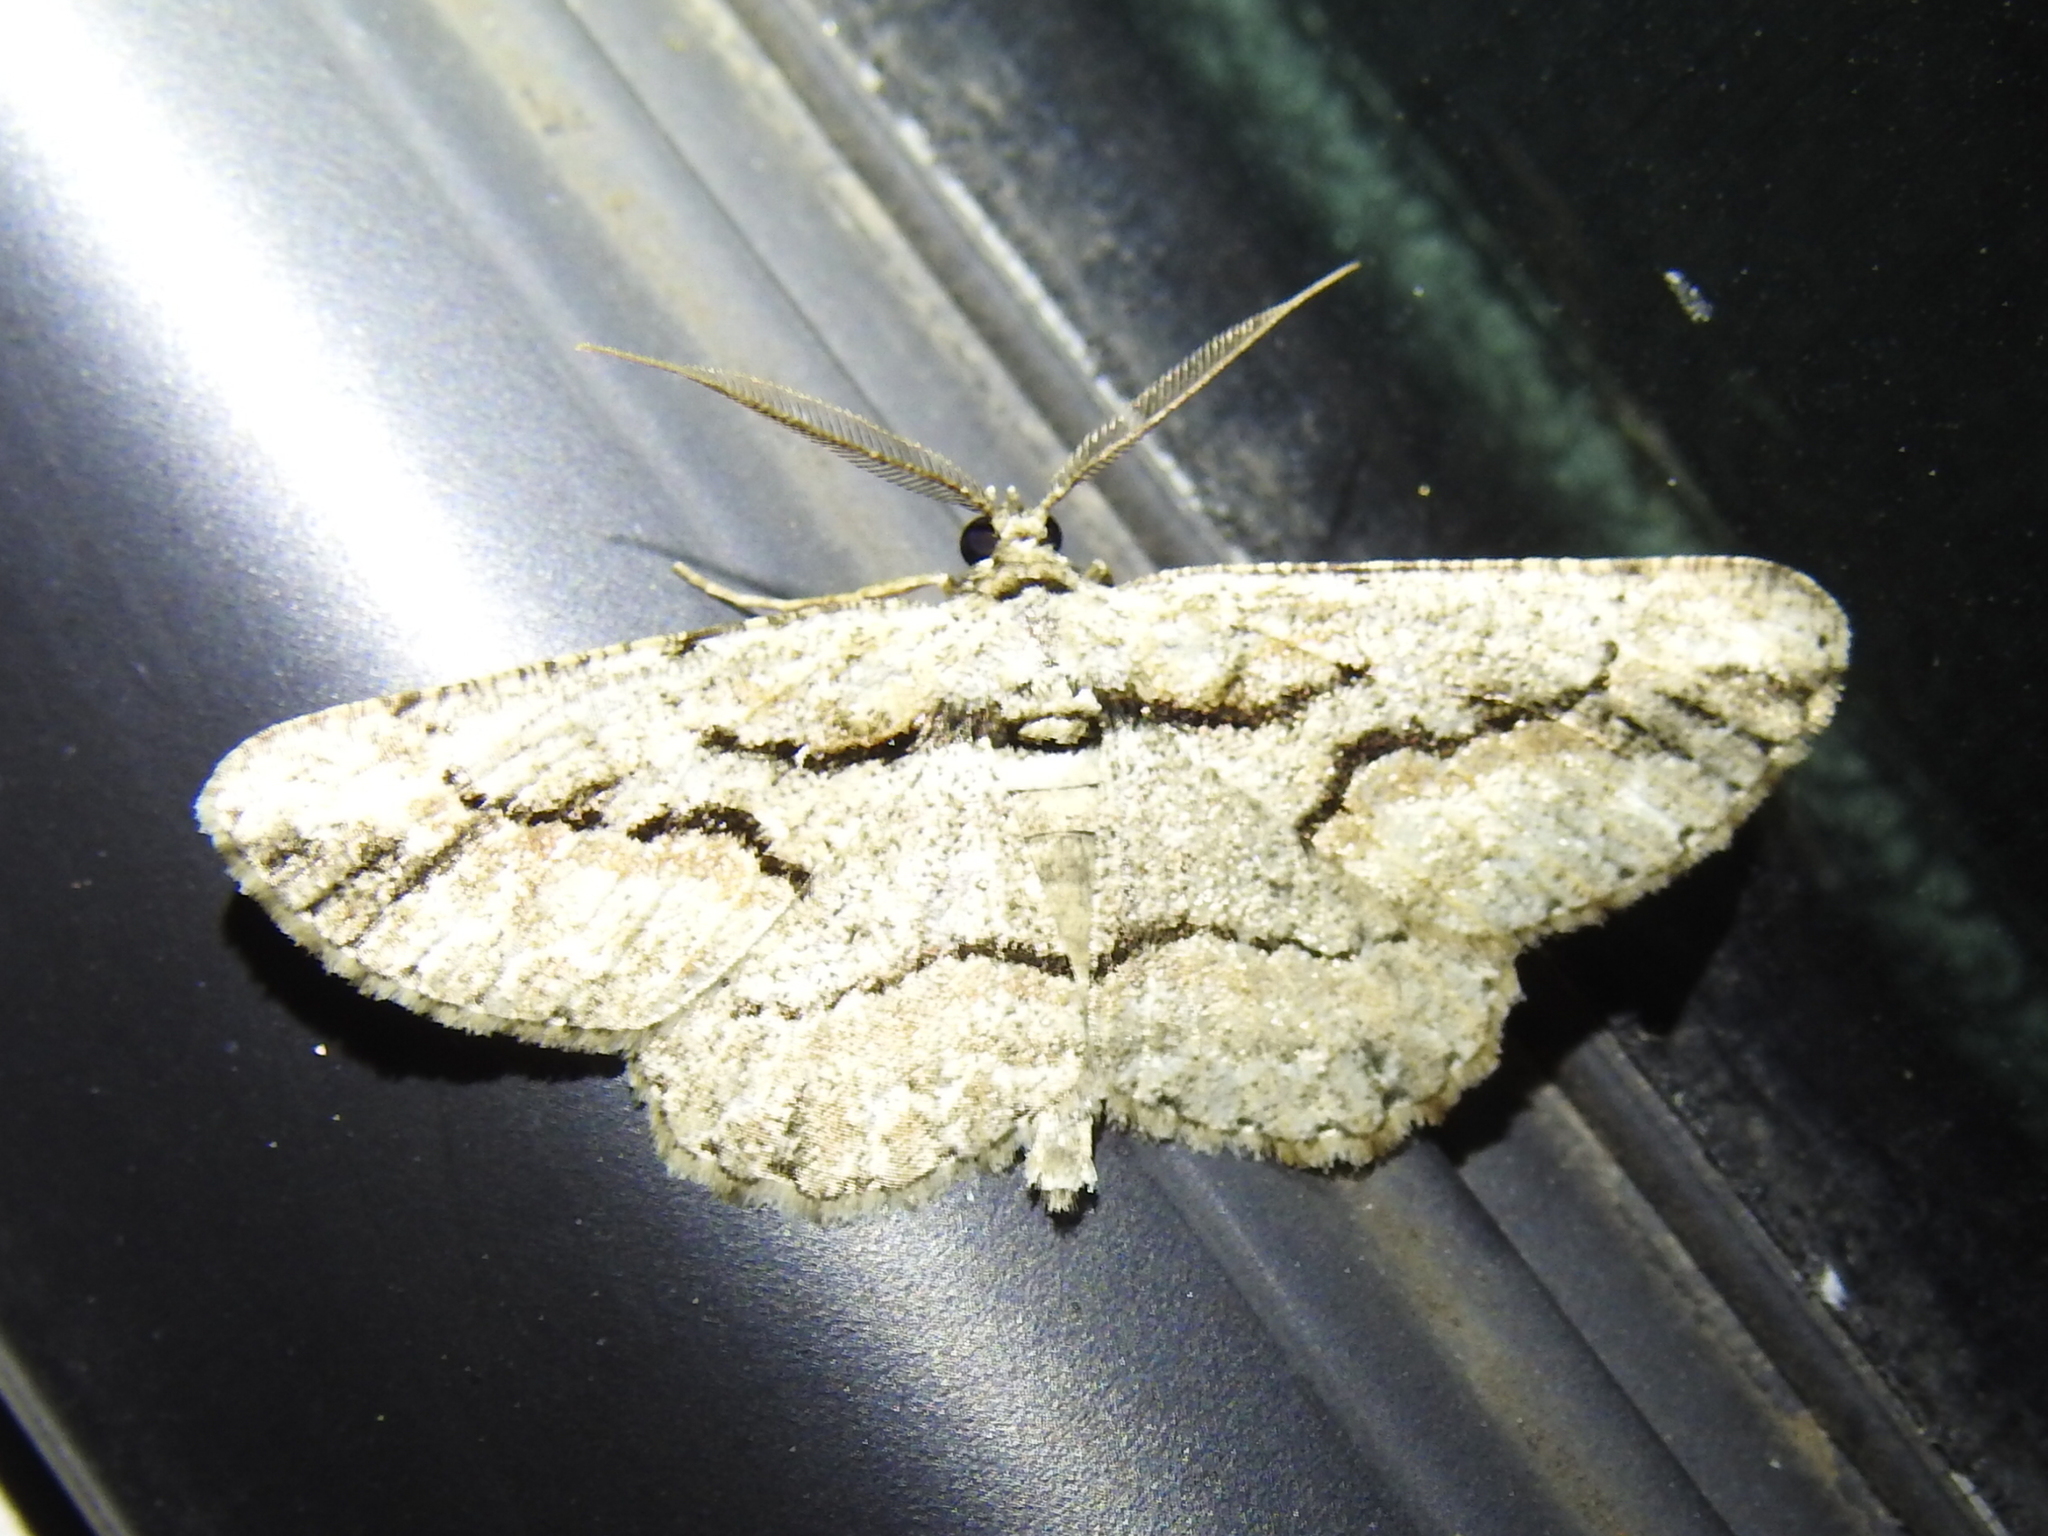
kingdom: Animalia
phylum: Arthropoda
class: Insecta
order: Lepidoptera
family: Geometridae
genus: Anavitrinella
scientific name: Anavitrinella atristrigaria
